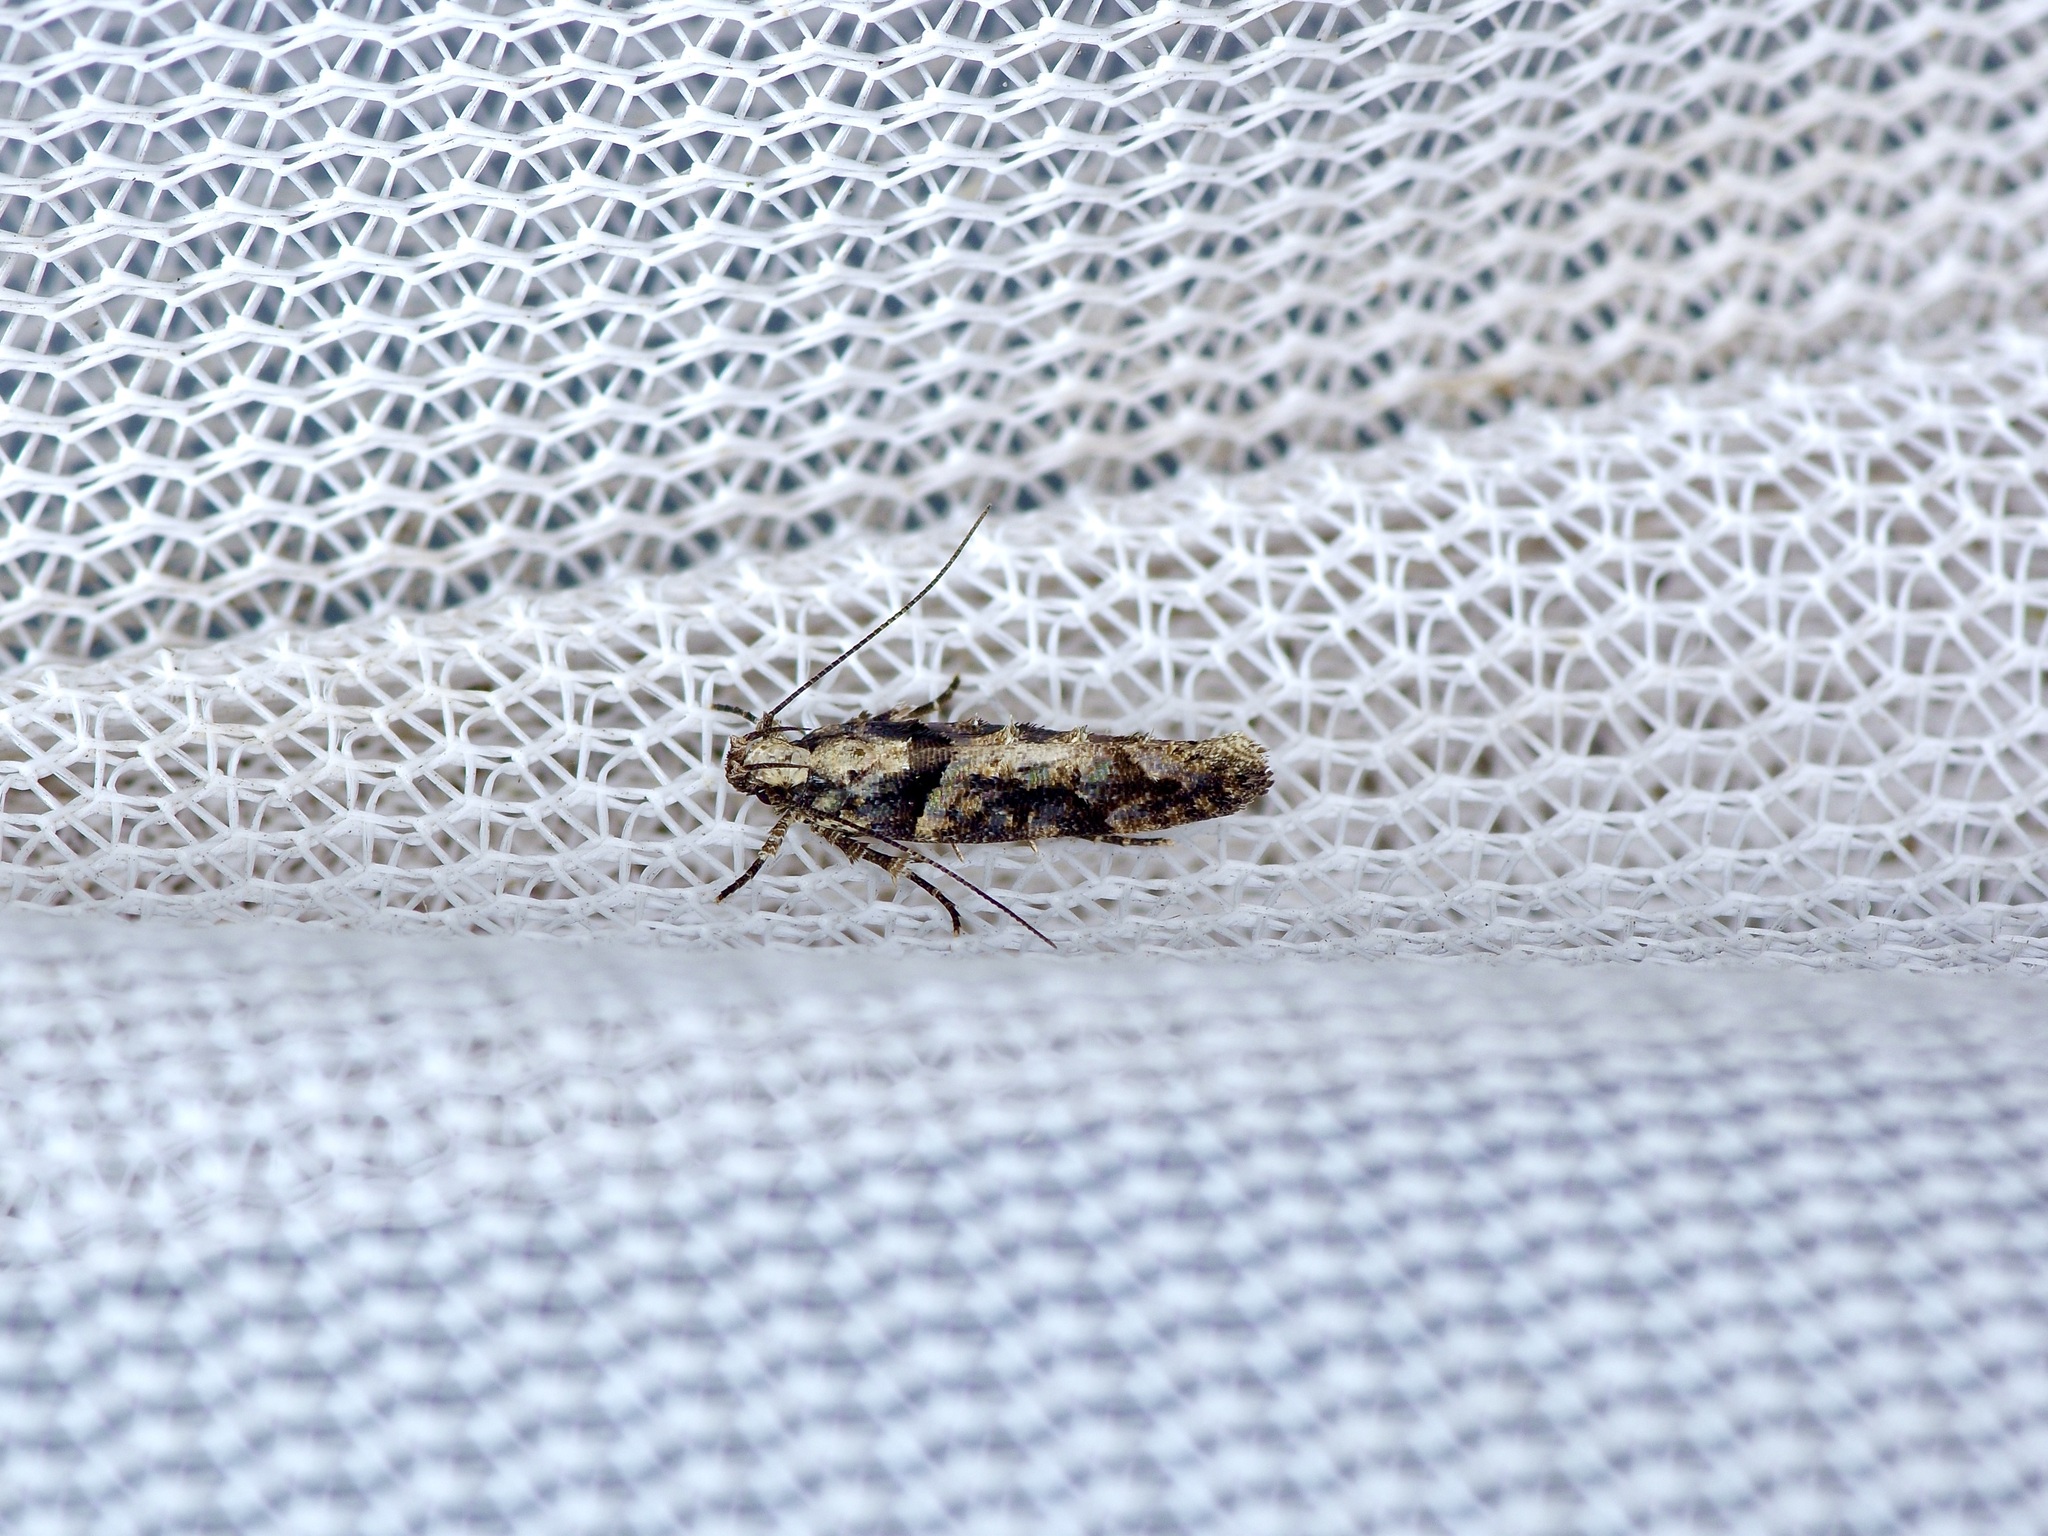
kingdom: Animalia
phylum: Arthropoda
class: Insecta
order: Lepidoptera
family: Gelechiidae
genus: Telphusa
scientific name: Telphusa perspicua
